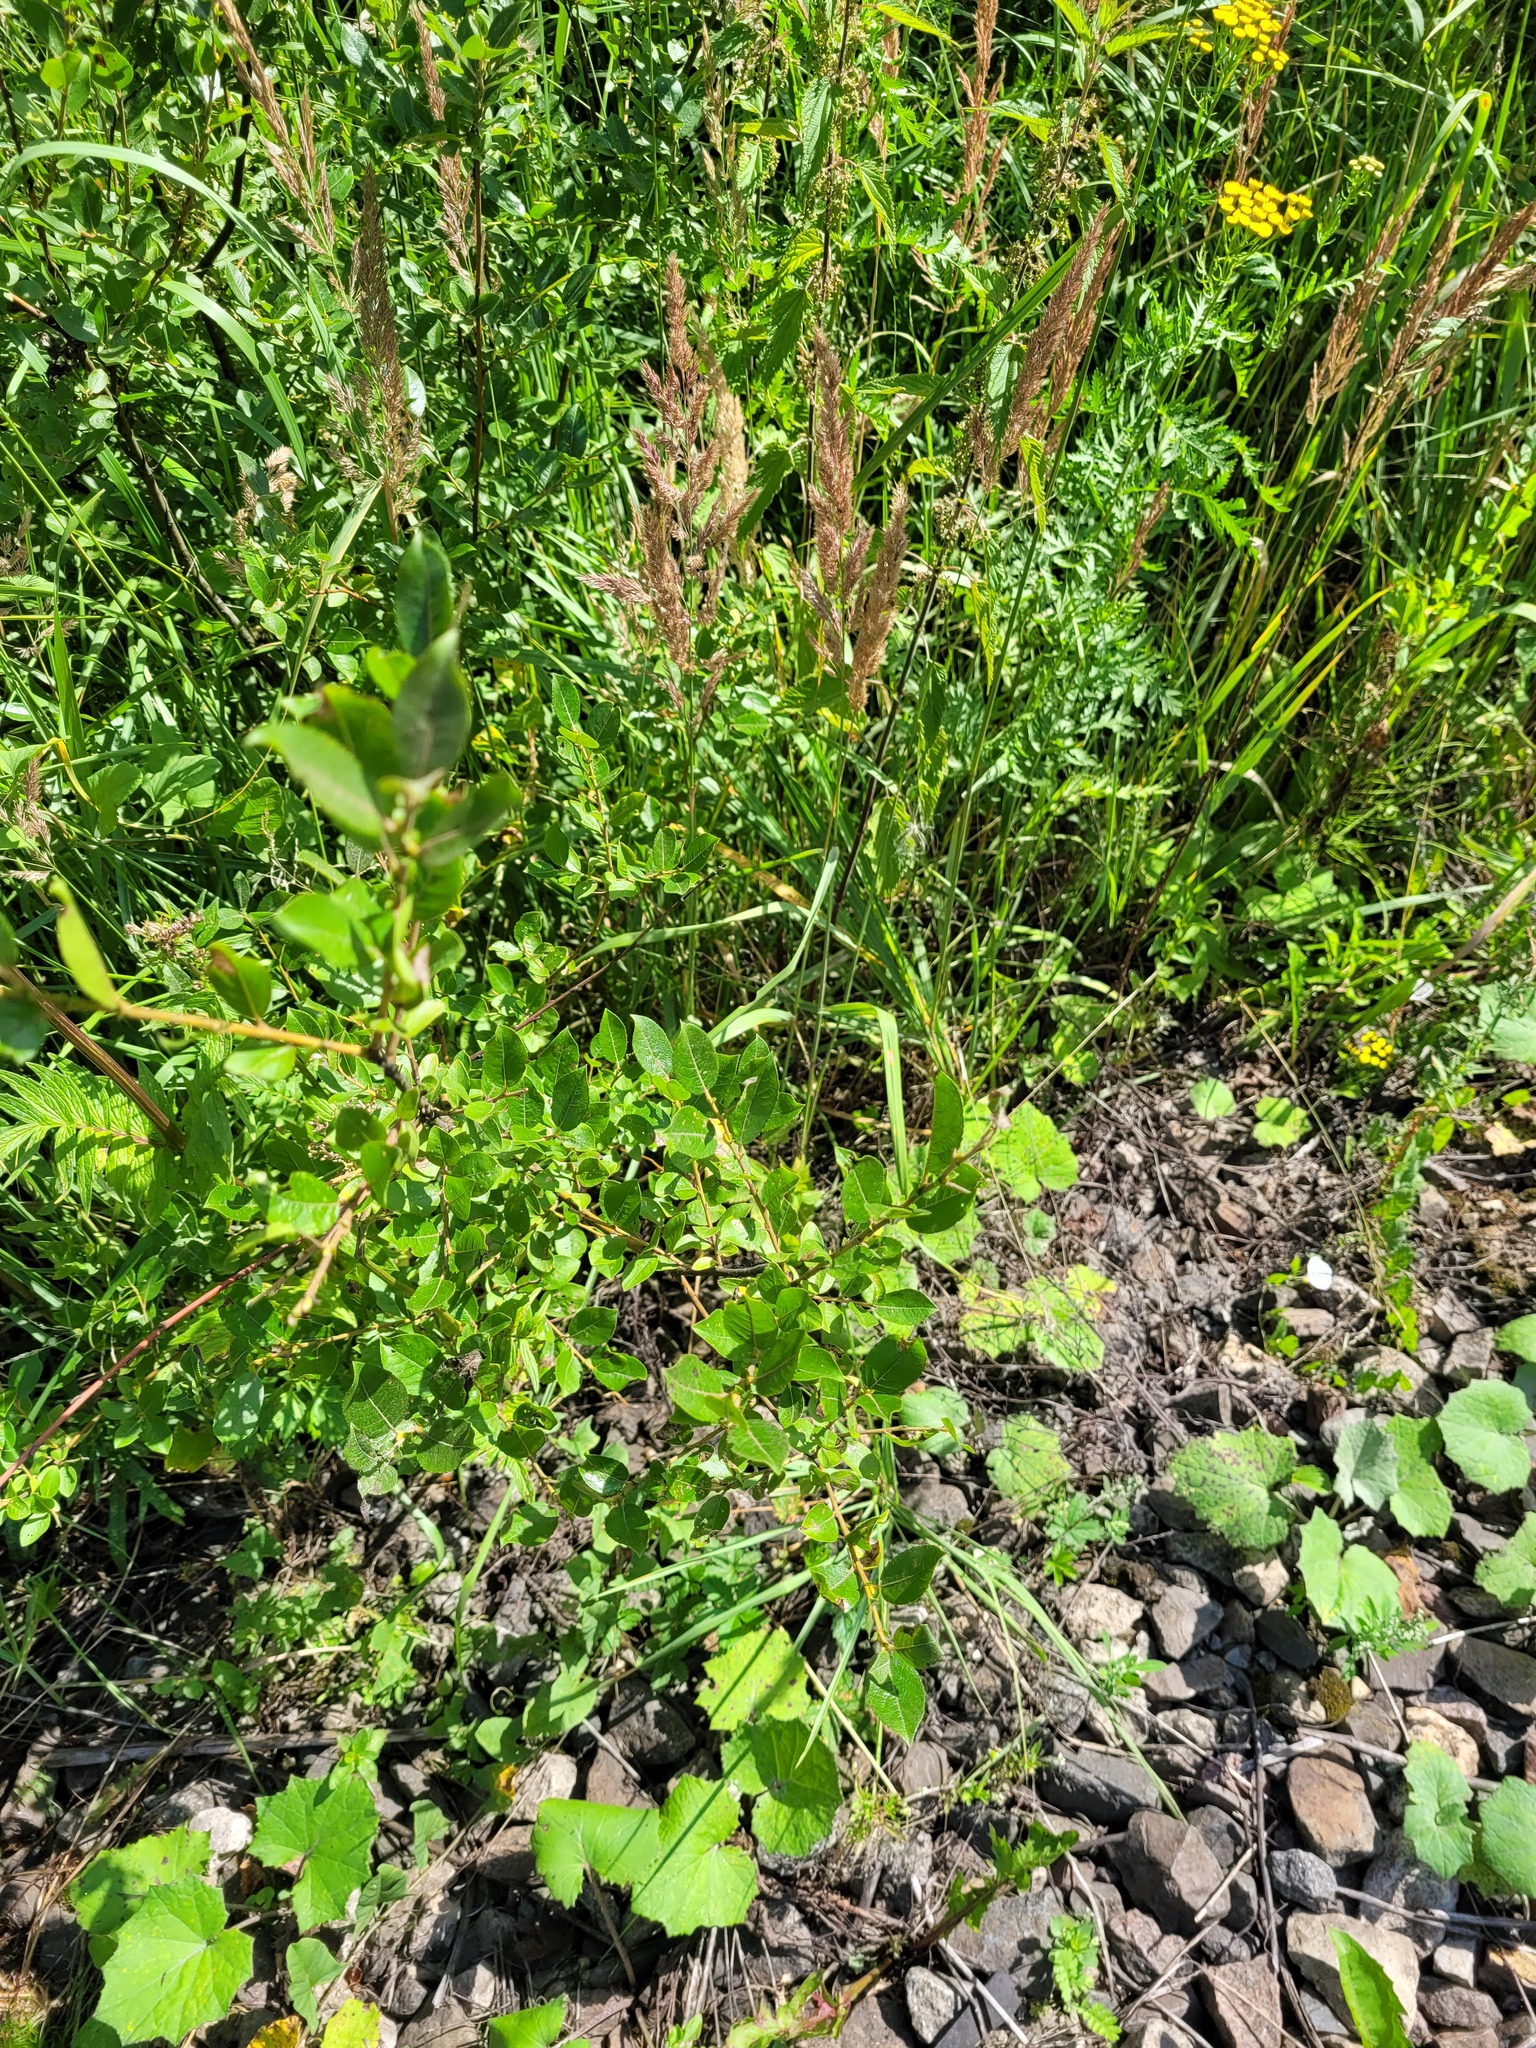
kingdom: Plantae
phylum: Tracheophyta
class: Magnoliopsida
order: Malpighiales
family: Salicaceae
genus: Salix
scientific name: Salix myrsinifolia
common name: Dark-leaved willow
